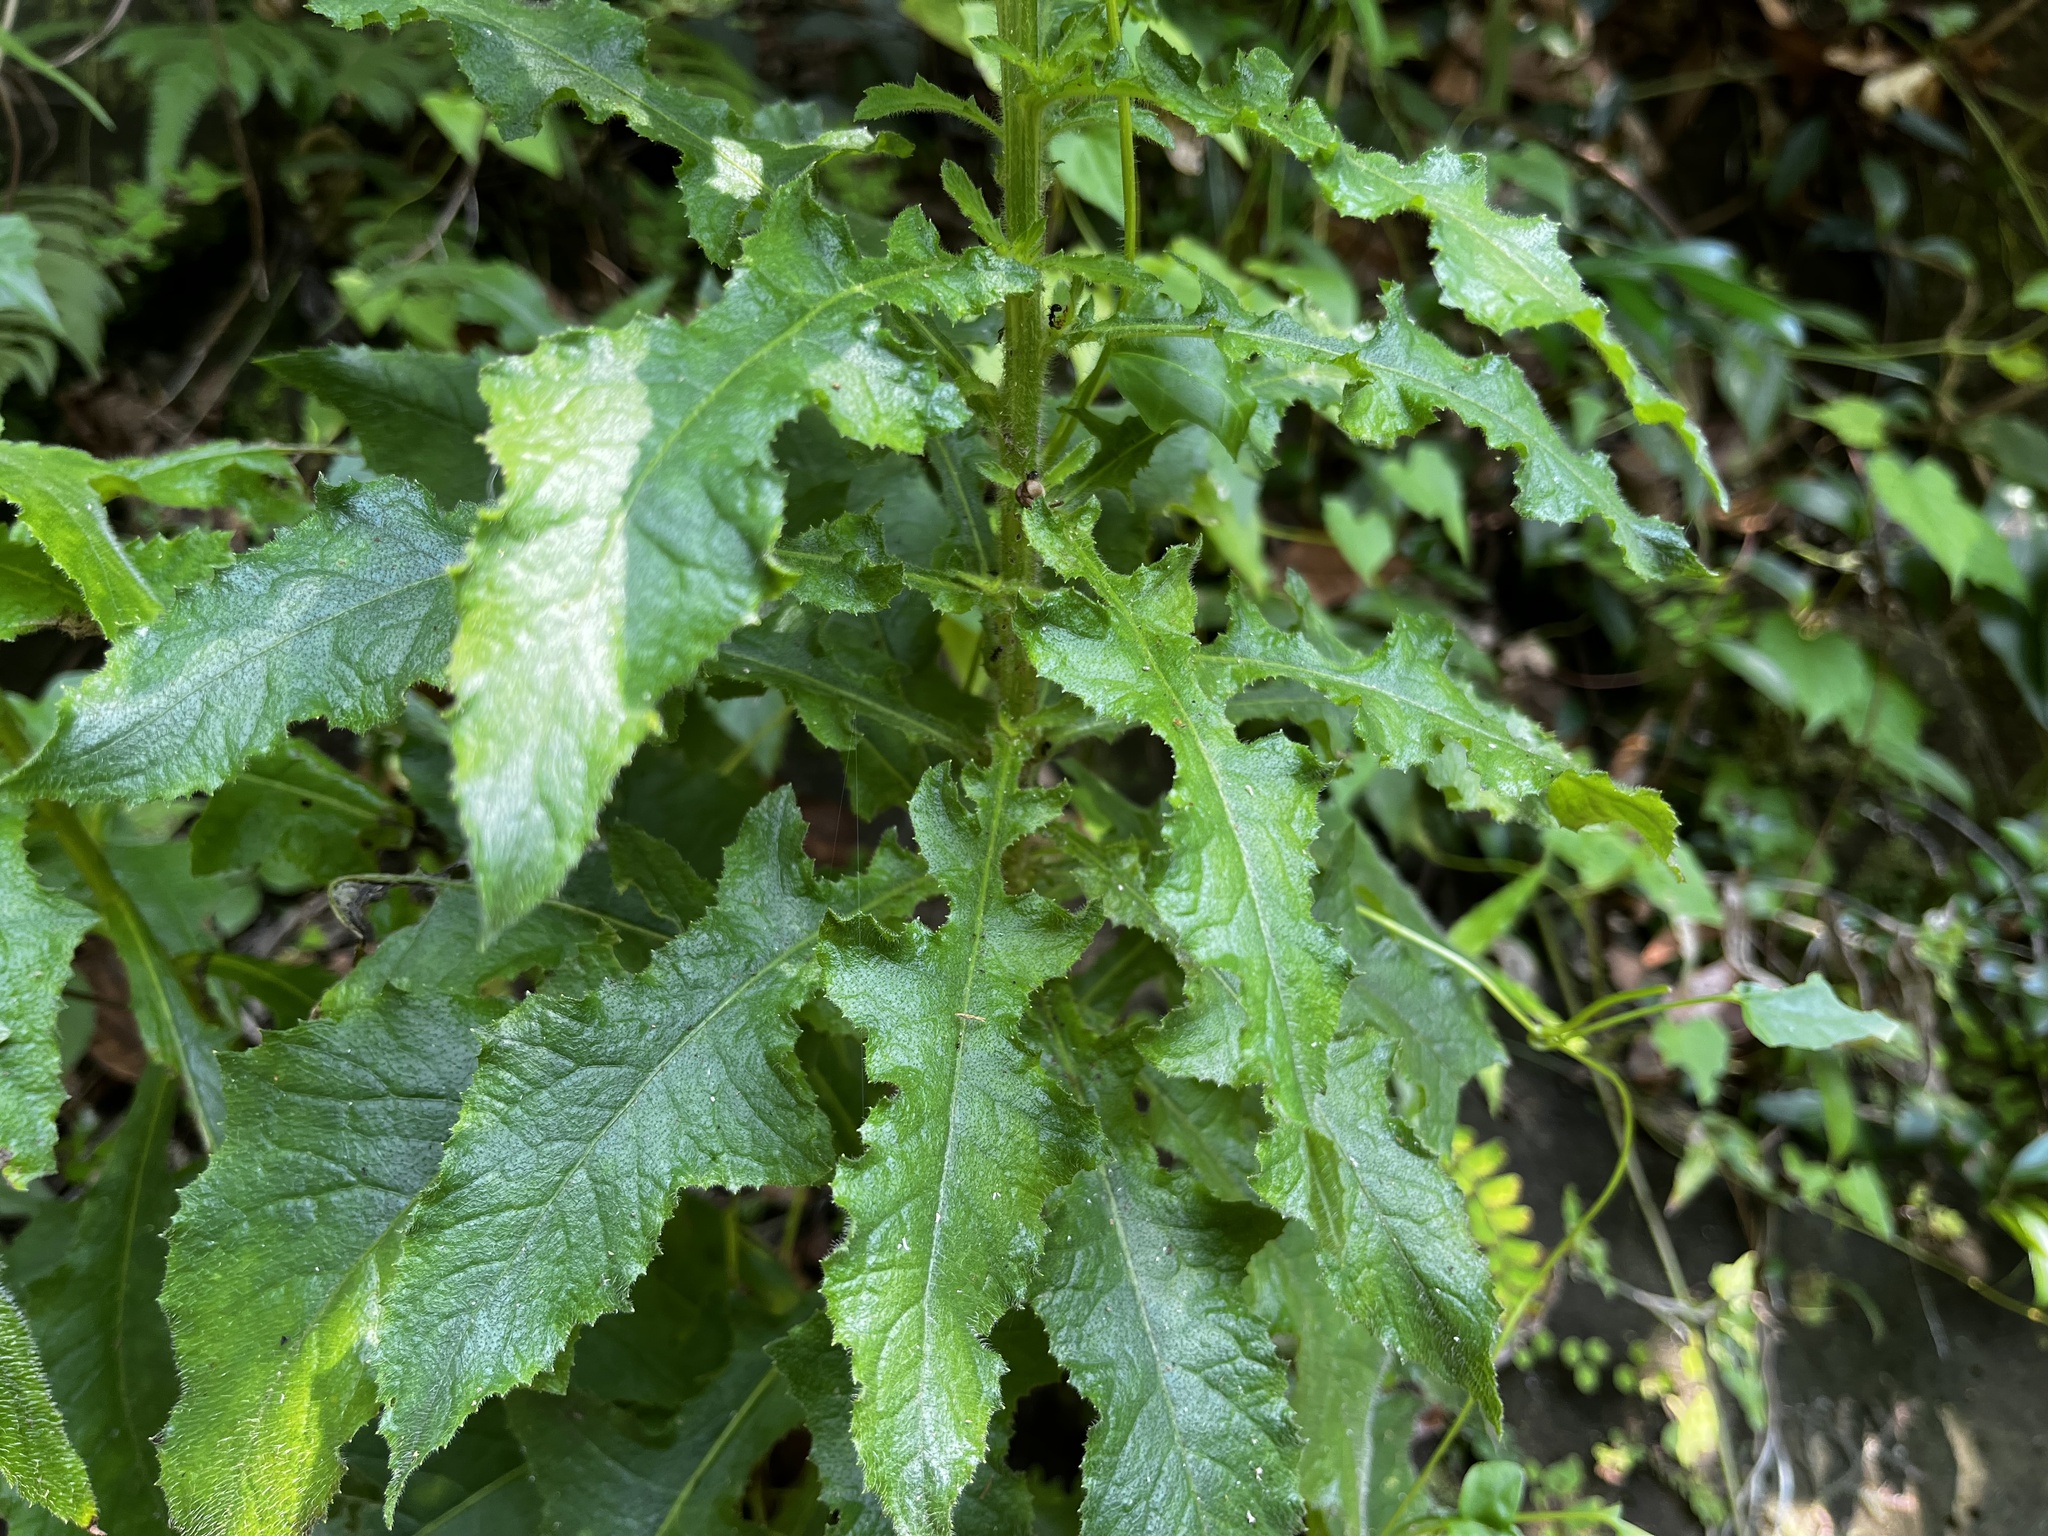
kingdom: Plantae
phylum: Tracheophyta
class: Magnoliopsida
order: Asterales
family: Asteraceae
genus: Blumea
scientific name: Blumea sinuata
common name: Cutleaf false oxtongue
